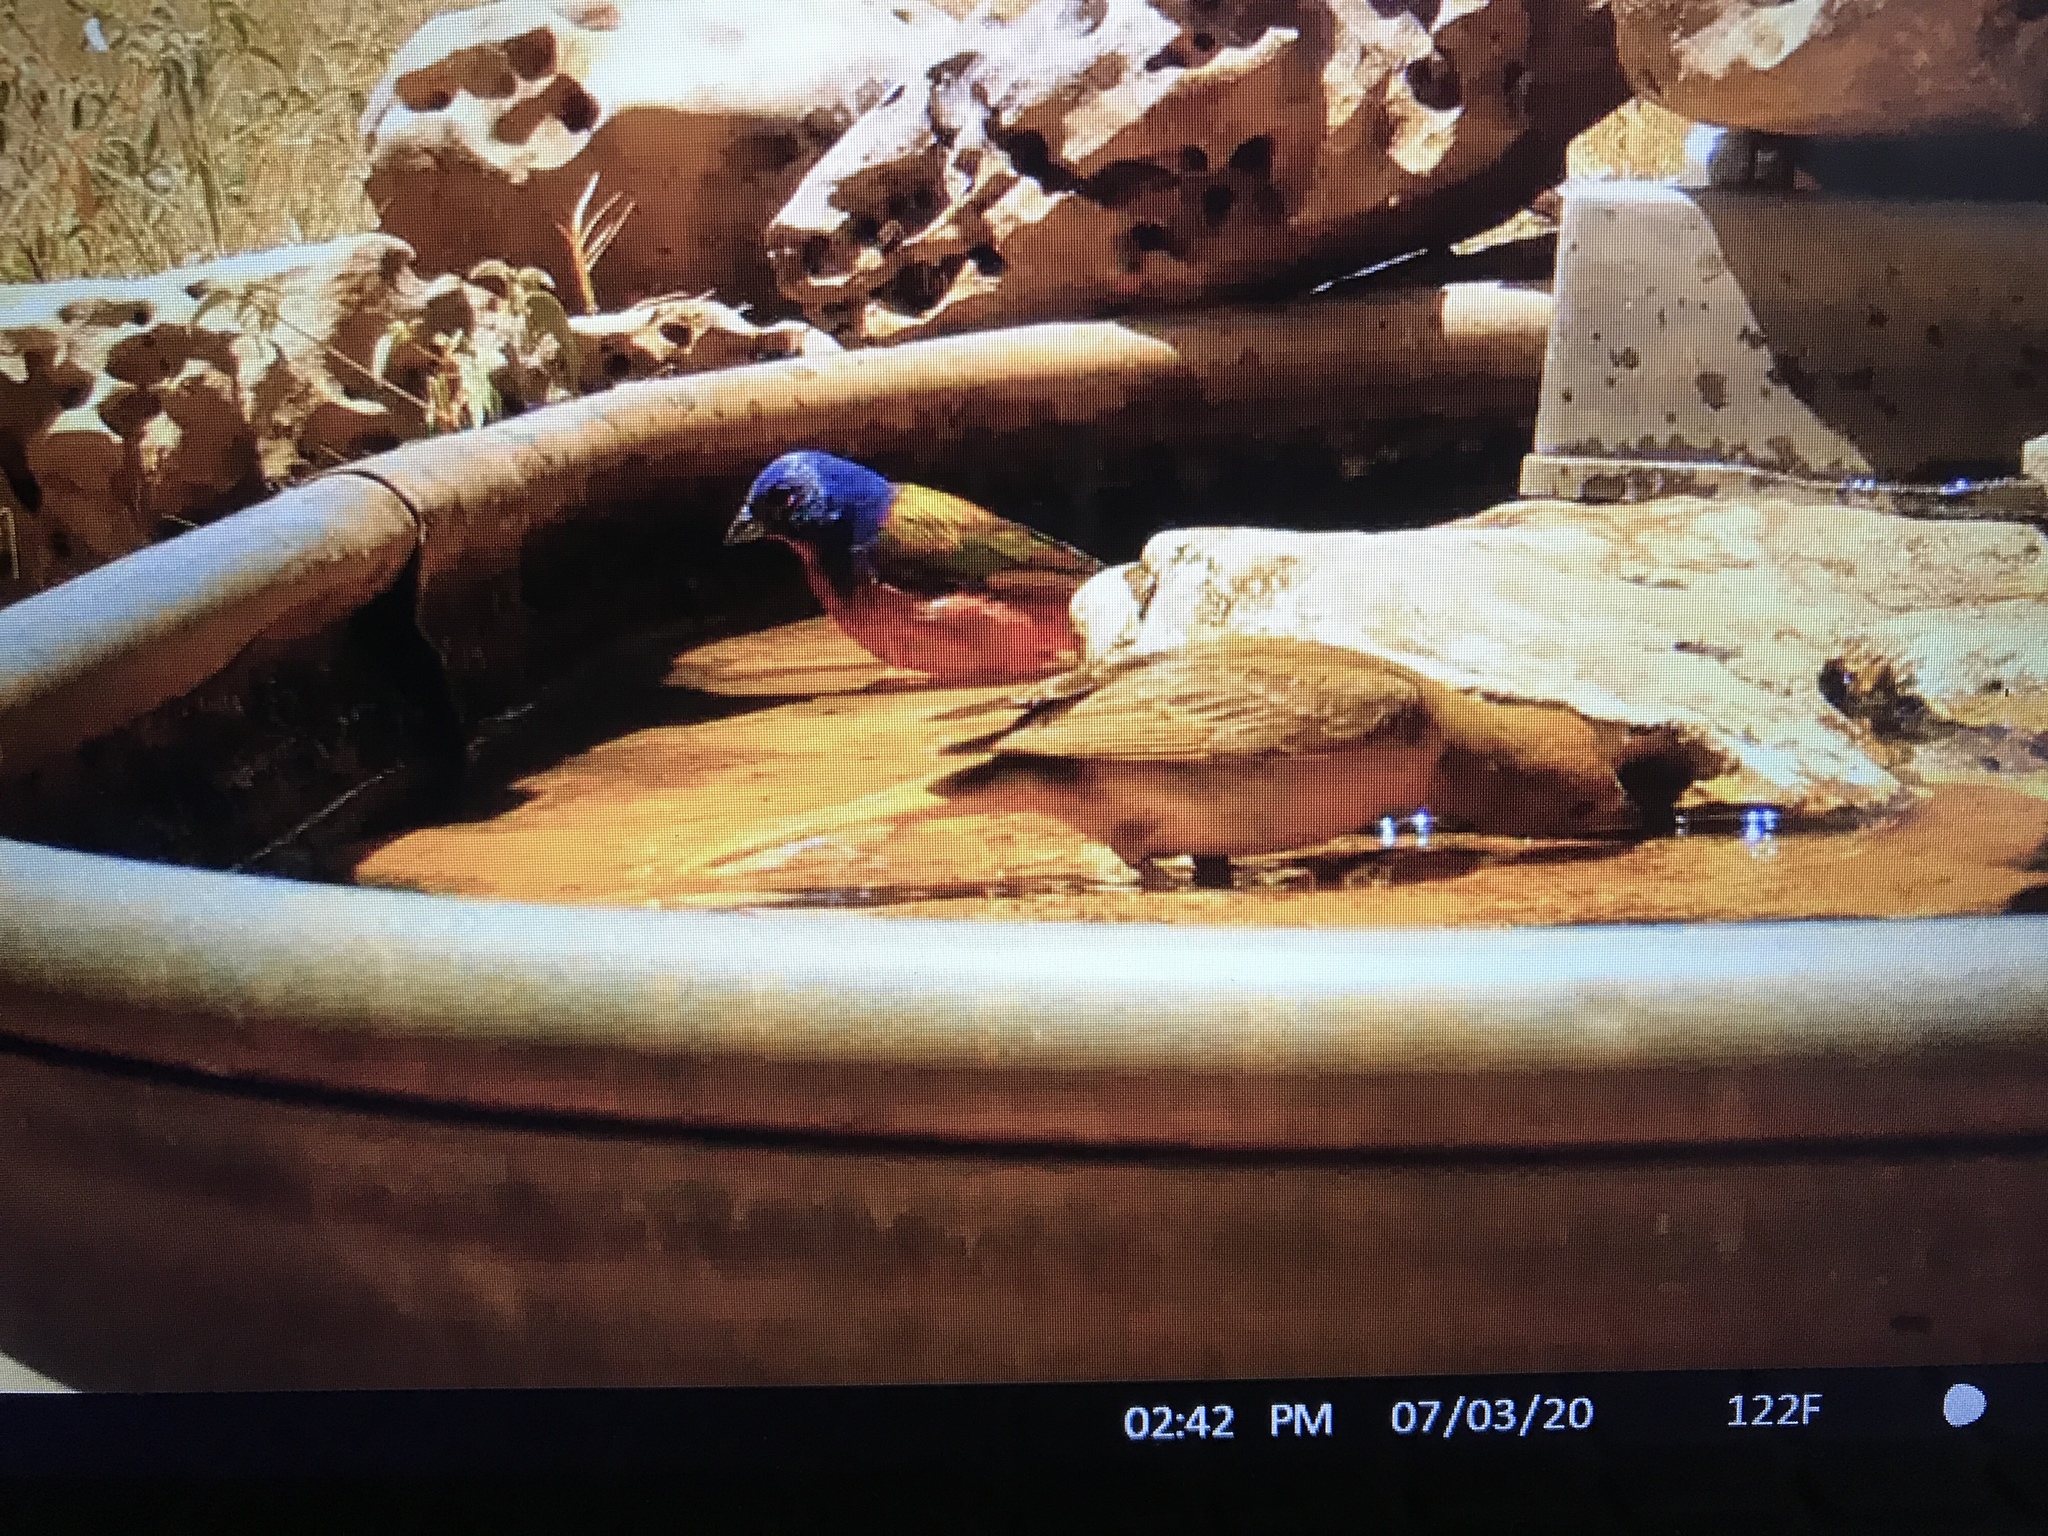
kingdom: Animalia
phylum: Chordata
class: Aves
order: Passeriformes
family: Cardinalidae
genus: Passerina
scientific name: Passerina ciris
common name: Painted bunting
